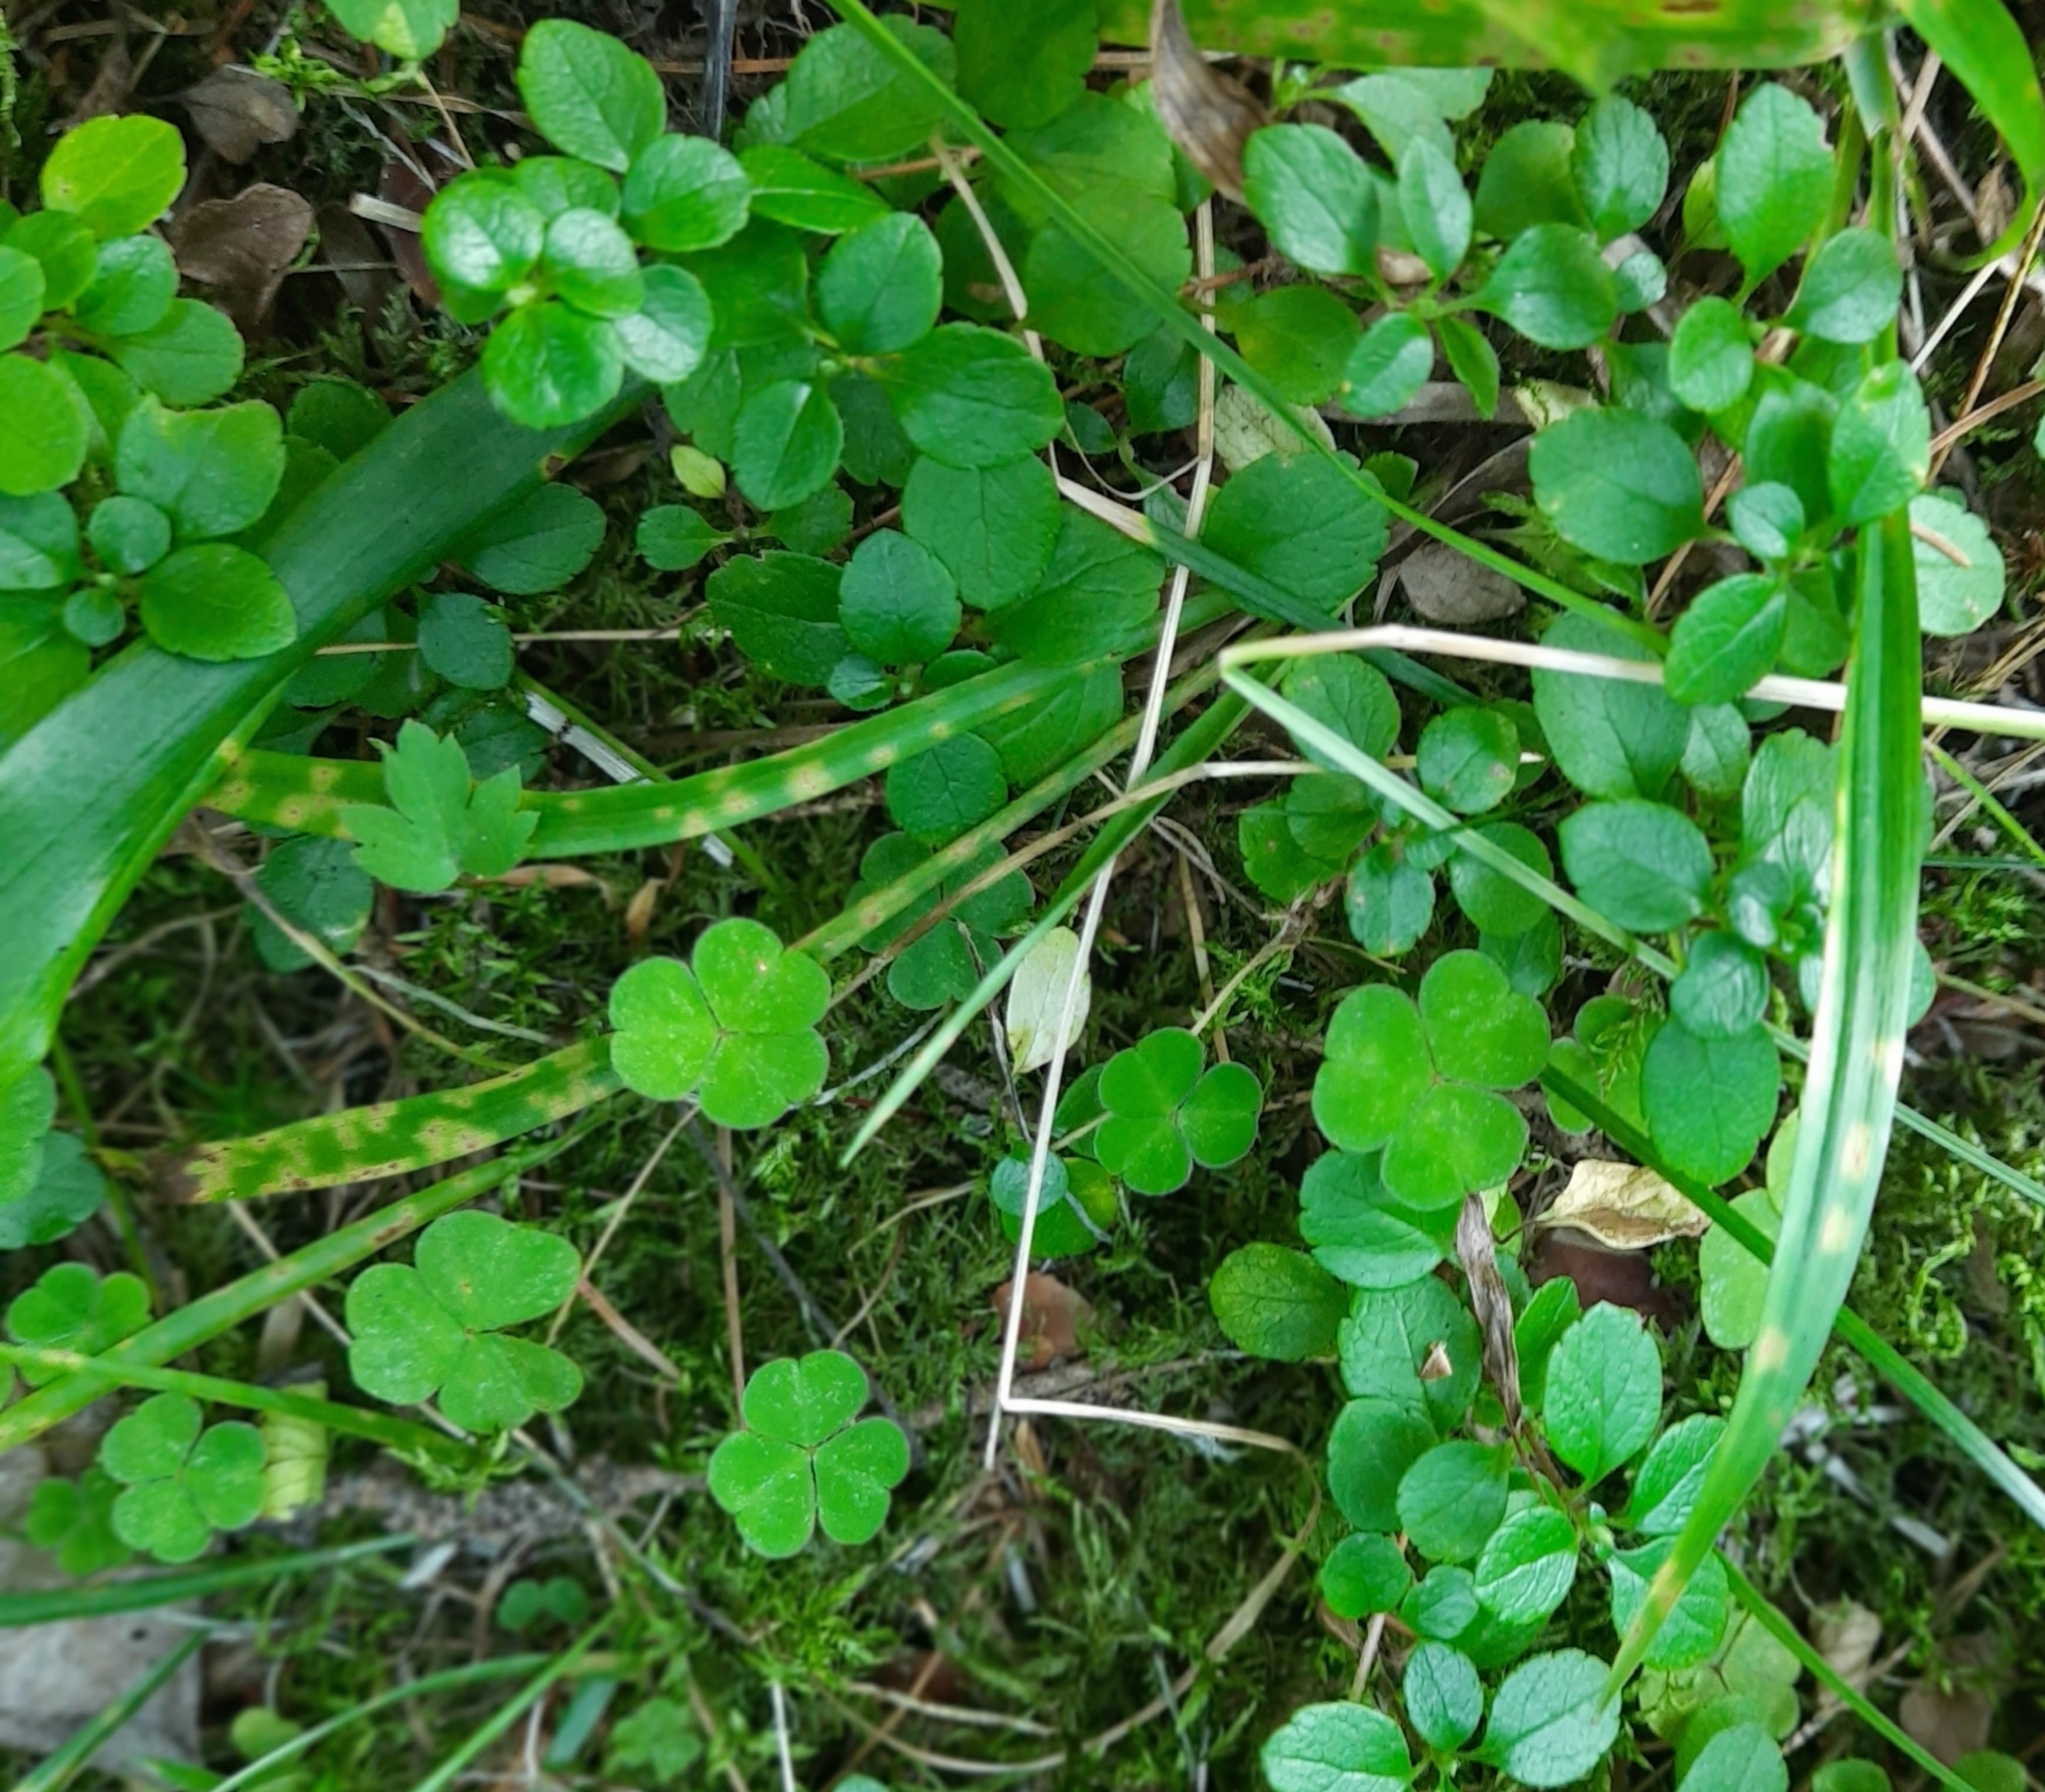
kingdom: Plantae
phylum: Tracheophyta
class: Magnoliopsida
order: Dipsacales
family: Caprifoliaceae
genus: Linnaea
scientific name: Linnaea borealis
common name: Twinflower
